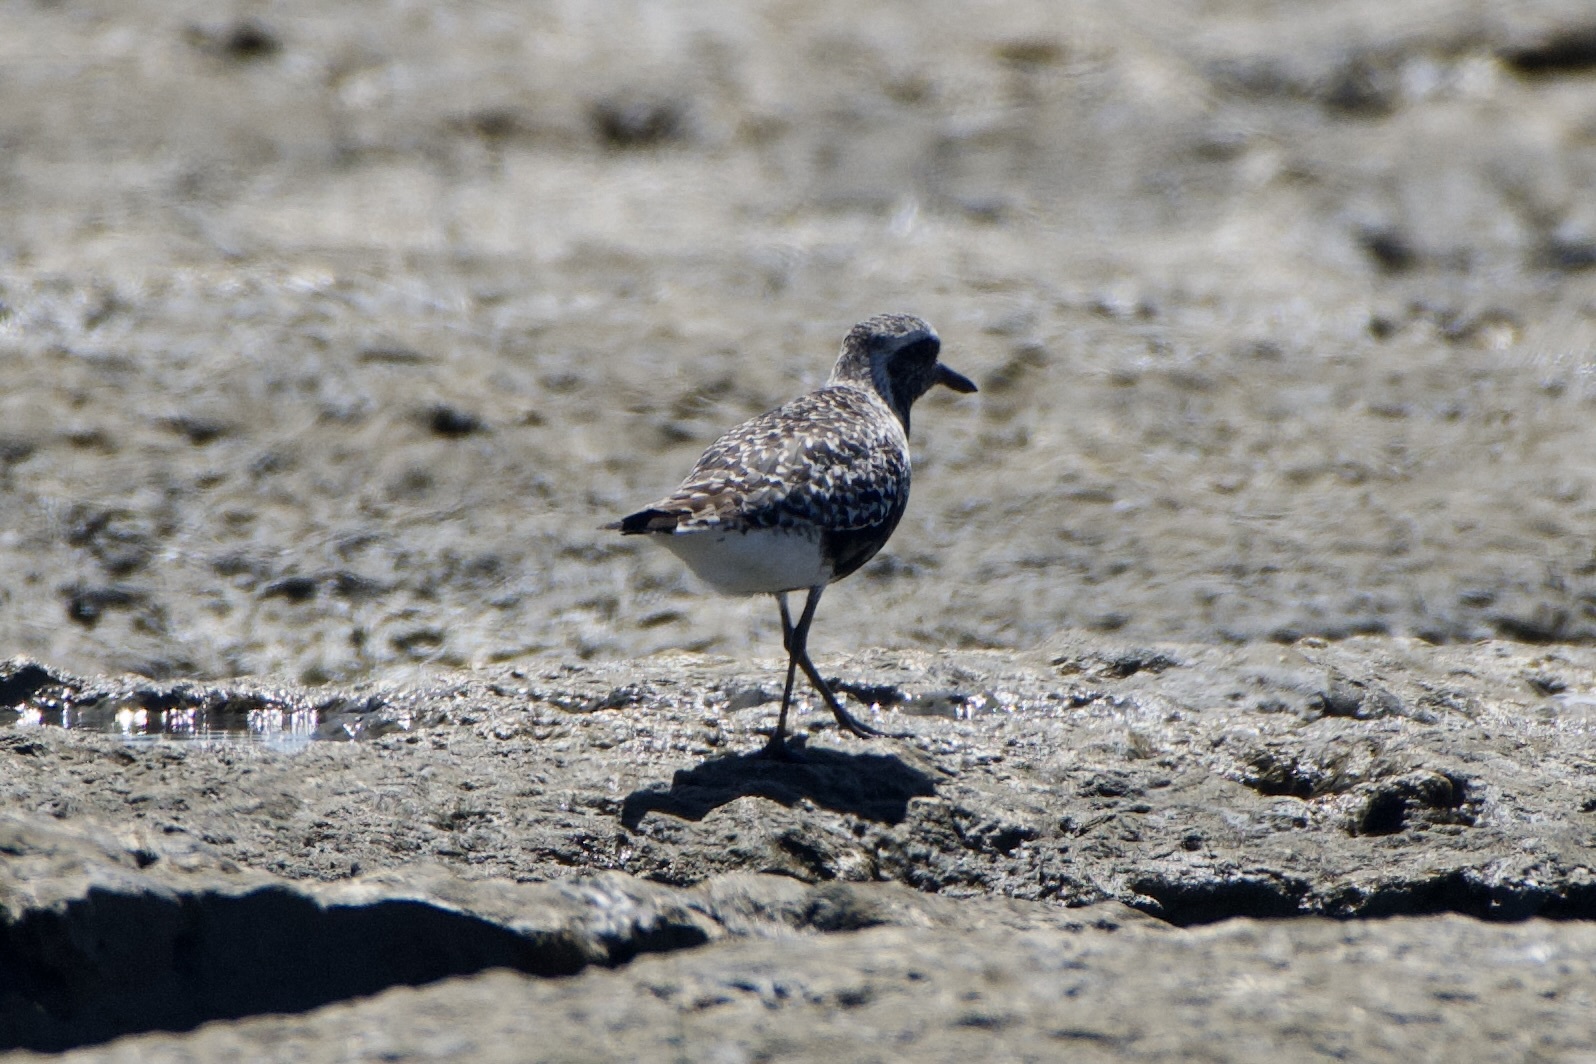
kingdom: Animalia
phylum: Chordata
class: Aves
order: Charadriiformes
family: Charadriidae
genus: Pluvialis
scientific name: Pluvialis squatarola
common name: Grey plover
